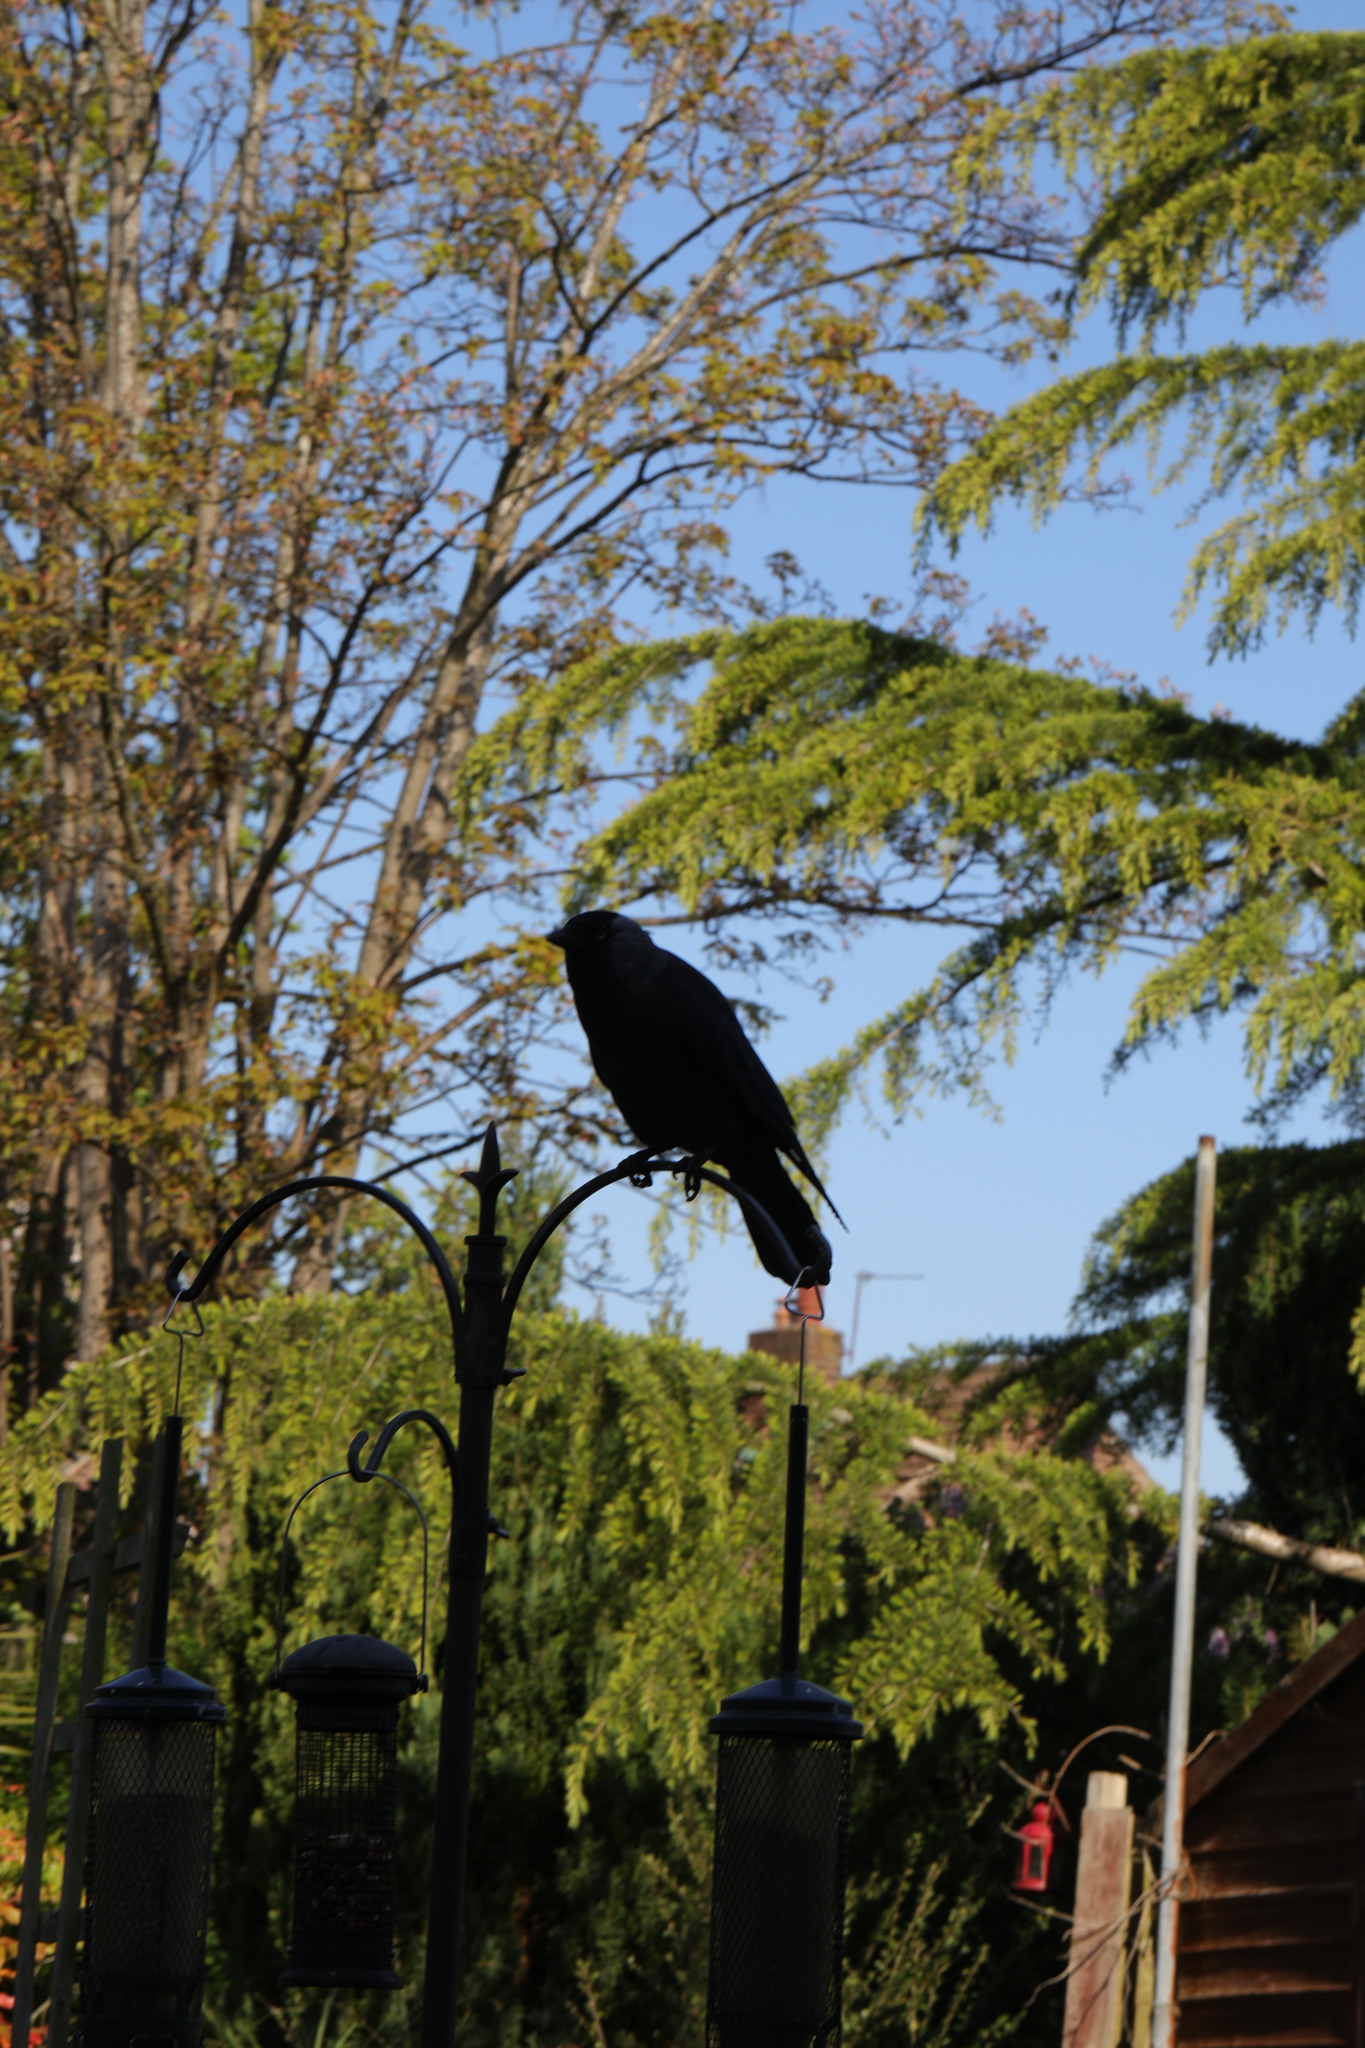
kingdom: Animalia
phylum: Chordata
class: Aves
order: Passeriformes
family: Corvidae
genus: Coloeus
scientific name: Coloeus monedula
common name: Western jackdaw
